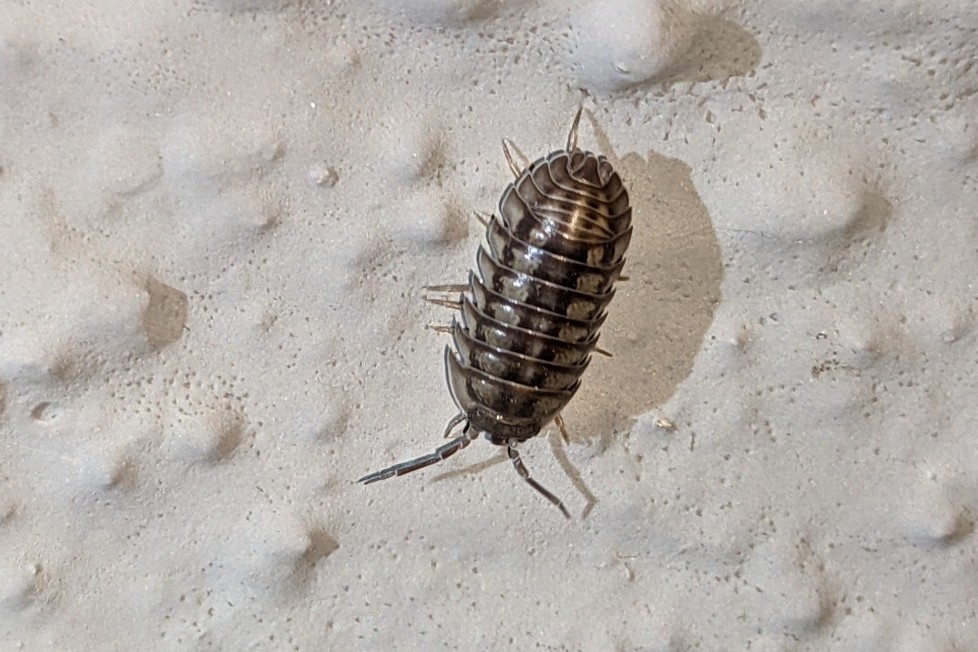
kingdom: Animalia
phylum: Arthropoda
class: Malacostraca
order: Isopoda
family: Armadillidiidae
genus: Armadillidium
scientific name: Armadillidium nasatum
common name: Isopod
